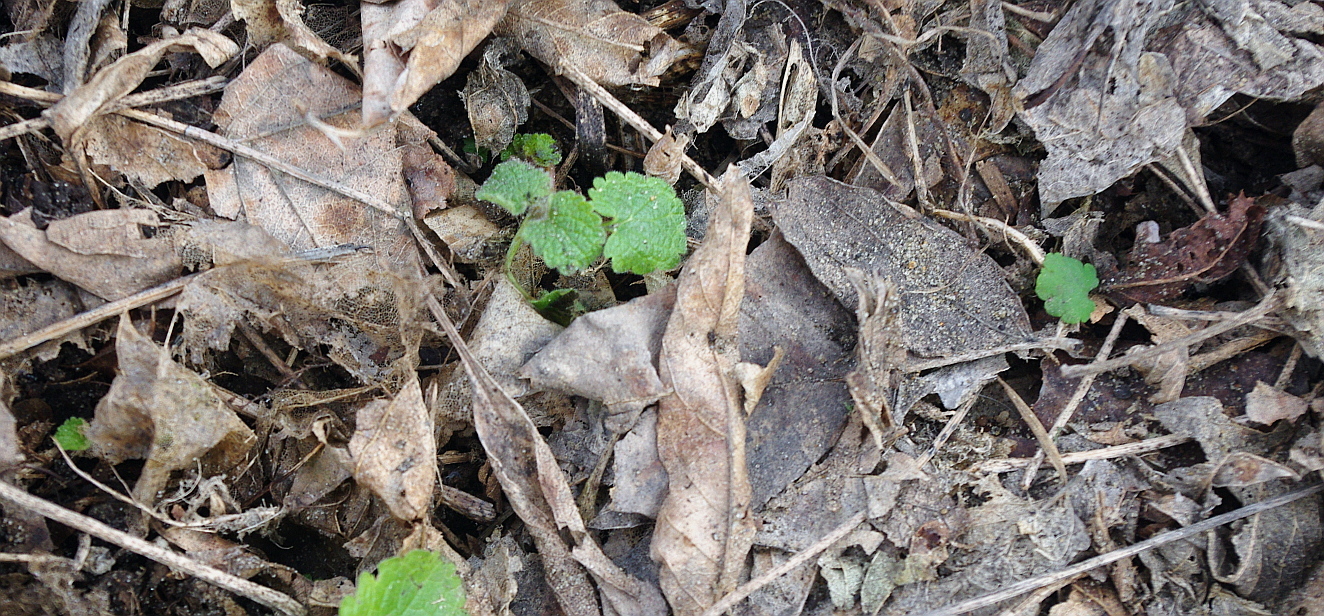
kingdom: Plantae
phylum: Tracheophyta
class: Magnoliopsida
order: Lamiales
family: Lamiaceae
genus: Lamium
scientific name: Lamium album
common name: White dead-nettle
